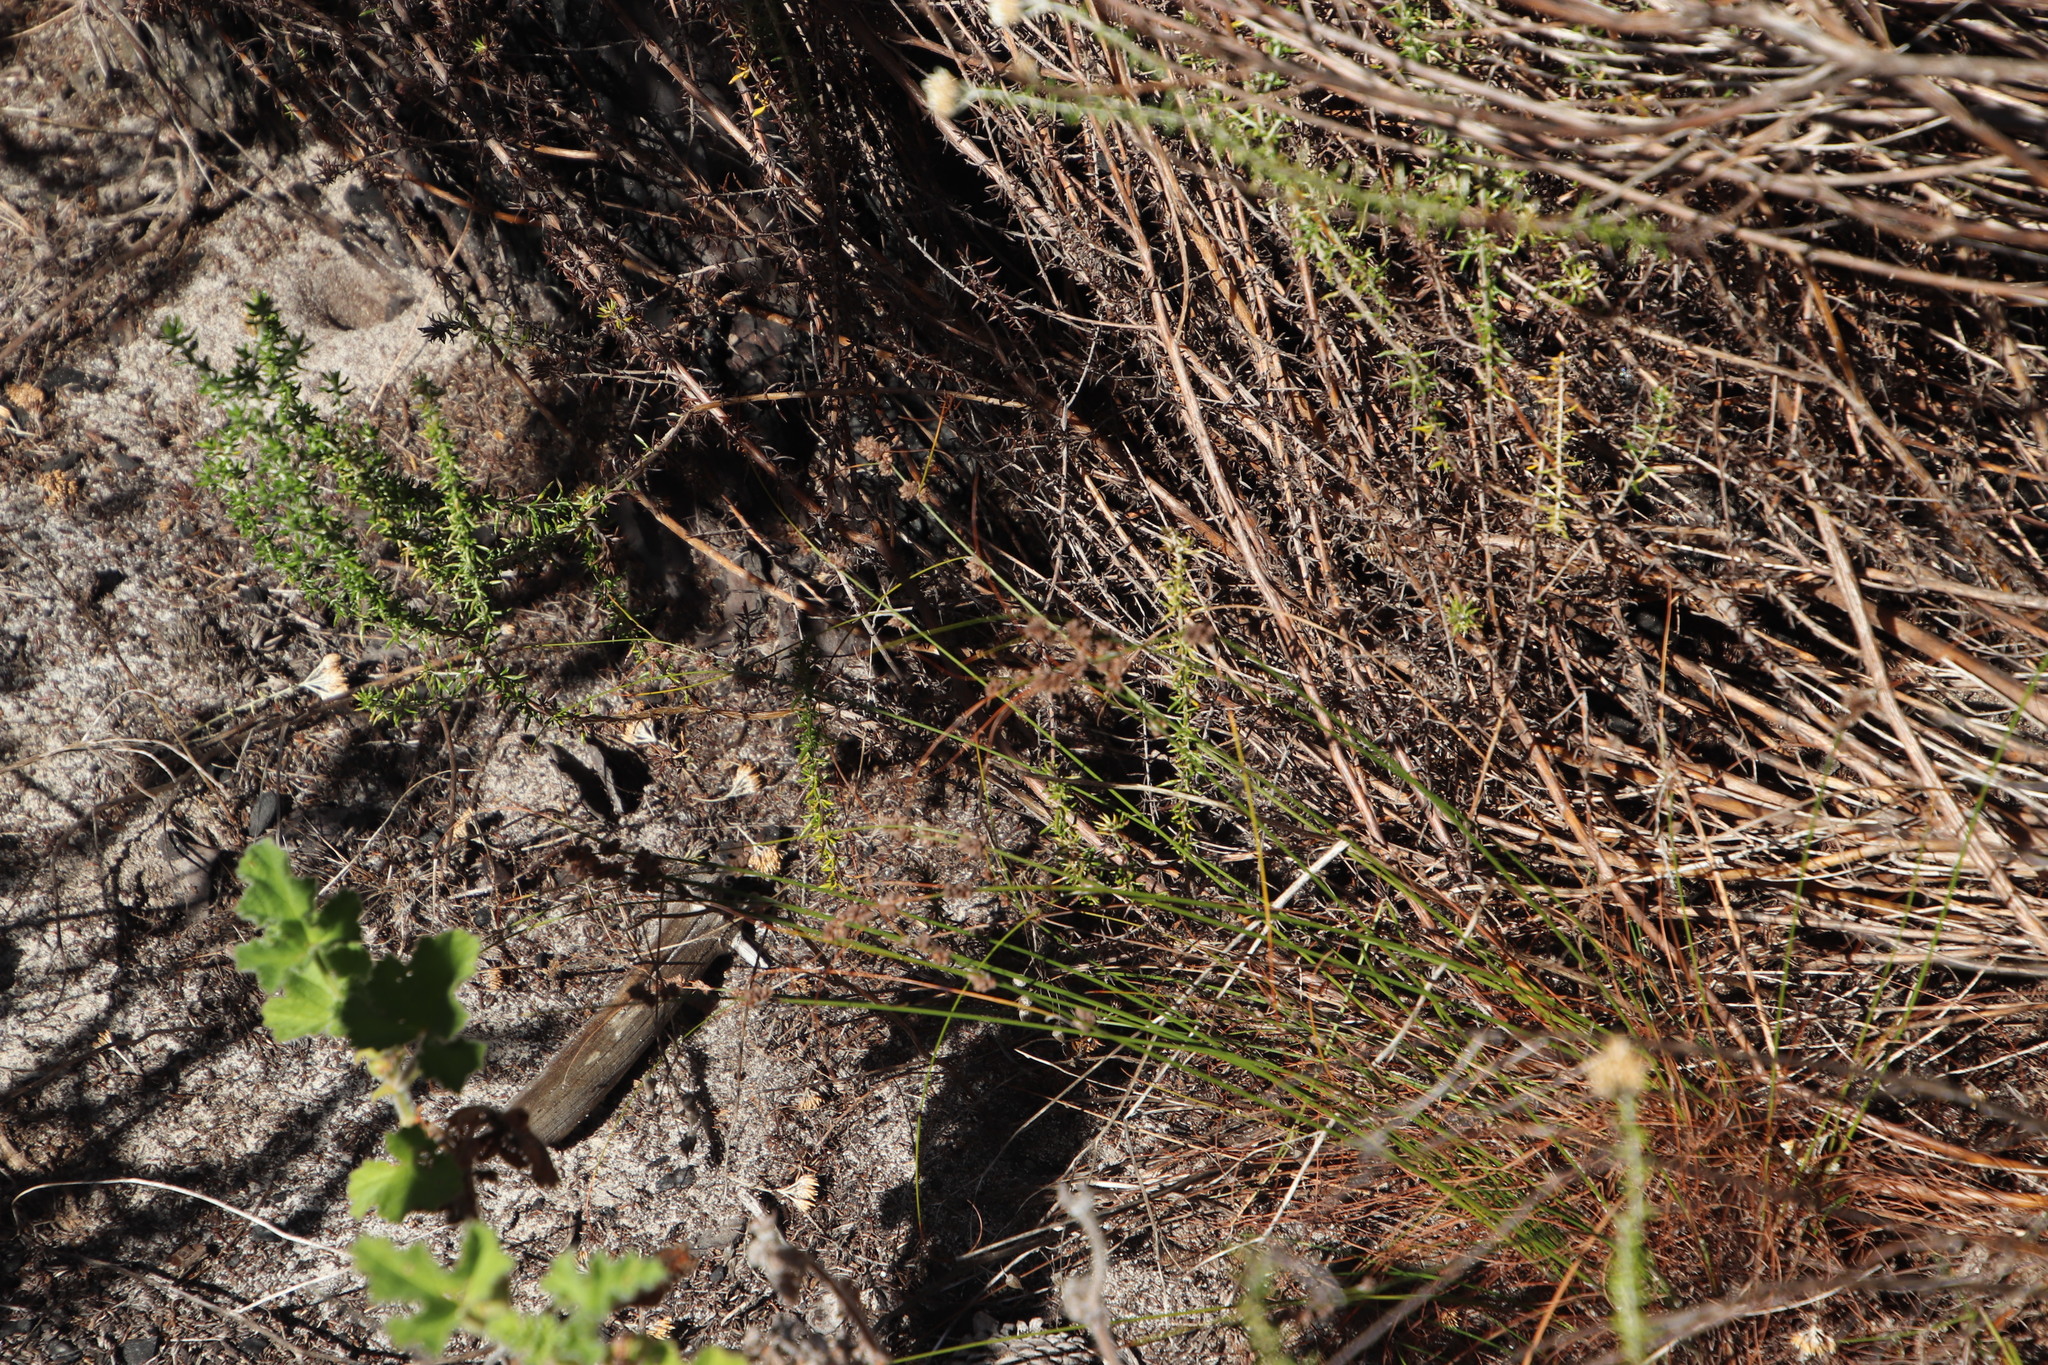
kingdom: Plantae
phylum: Tracheophyta
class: Liliopsida
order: Poales
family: Cyperaceae
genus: Ficinia
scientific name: Ficinia bulbosa
